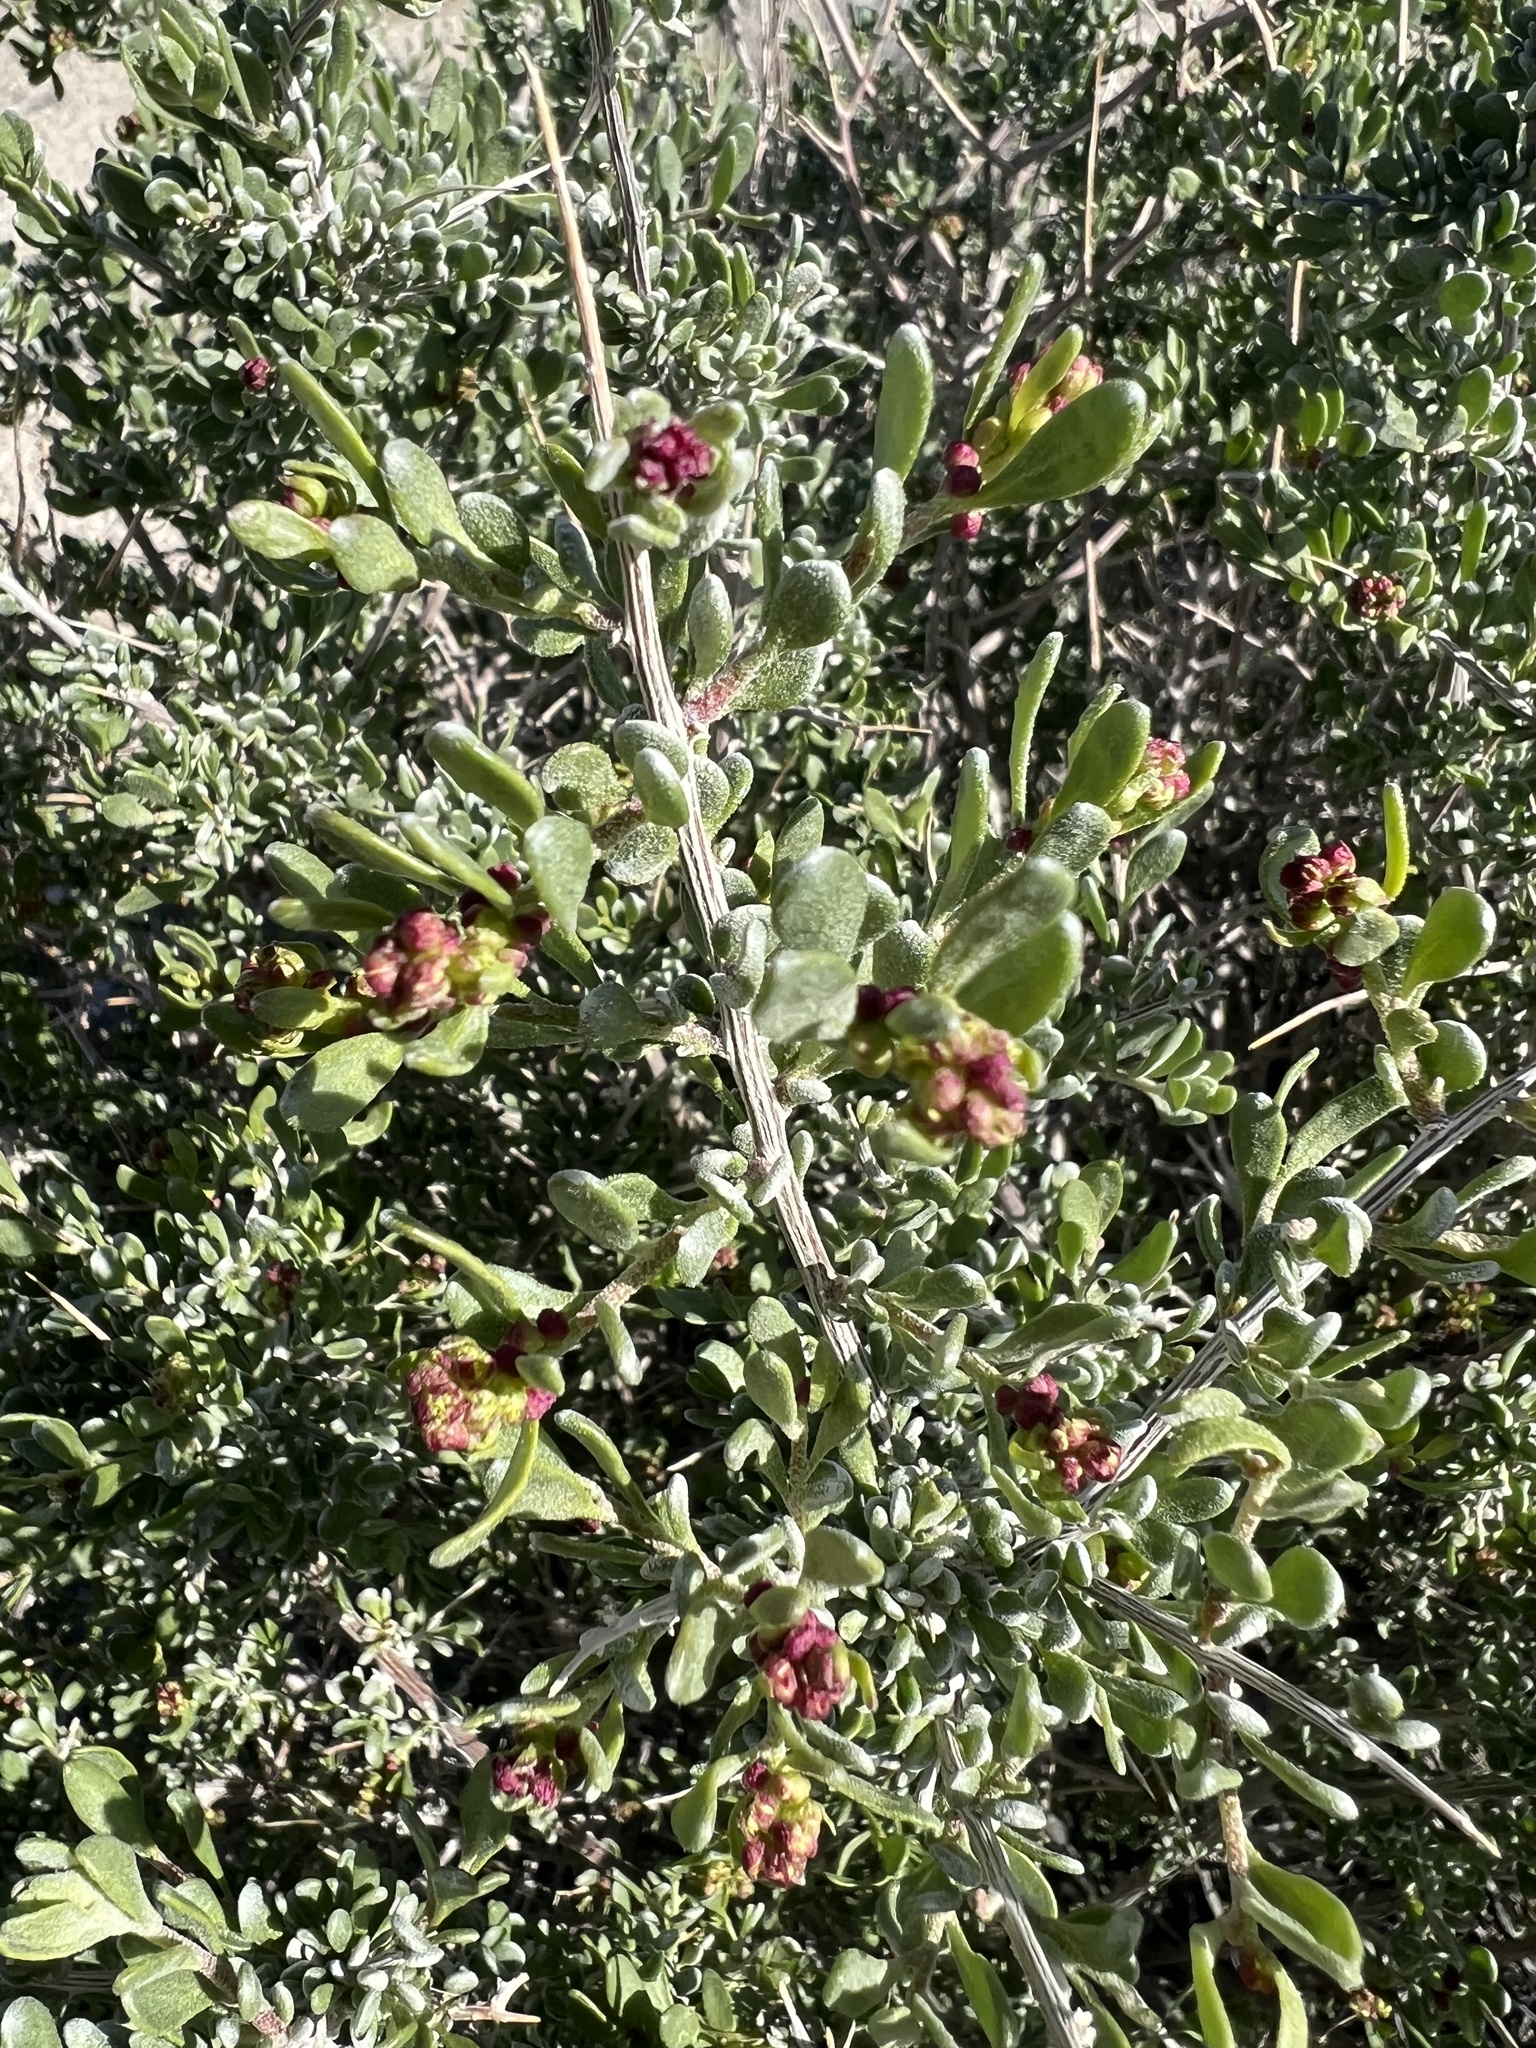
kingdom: Plantae
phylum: Tracheophyta
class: Magnoliopsida
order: Caryophyllales
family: Amaranthaceae
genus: Grayia
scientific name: Grayia spinosa
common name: Spiny hopsage
